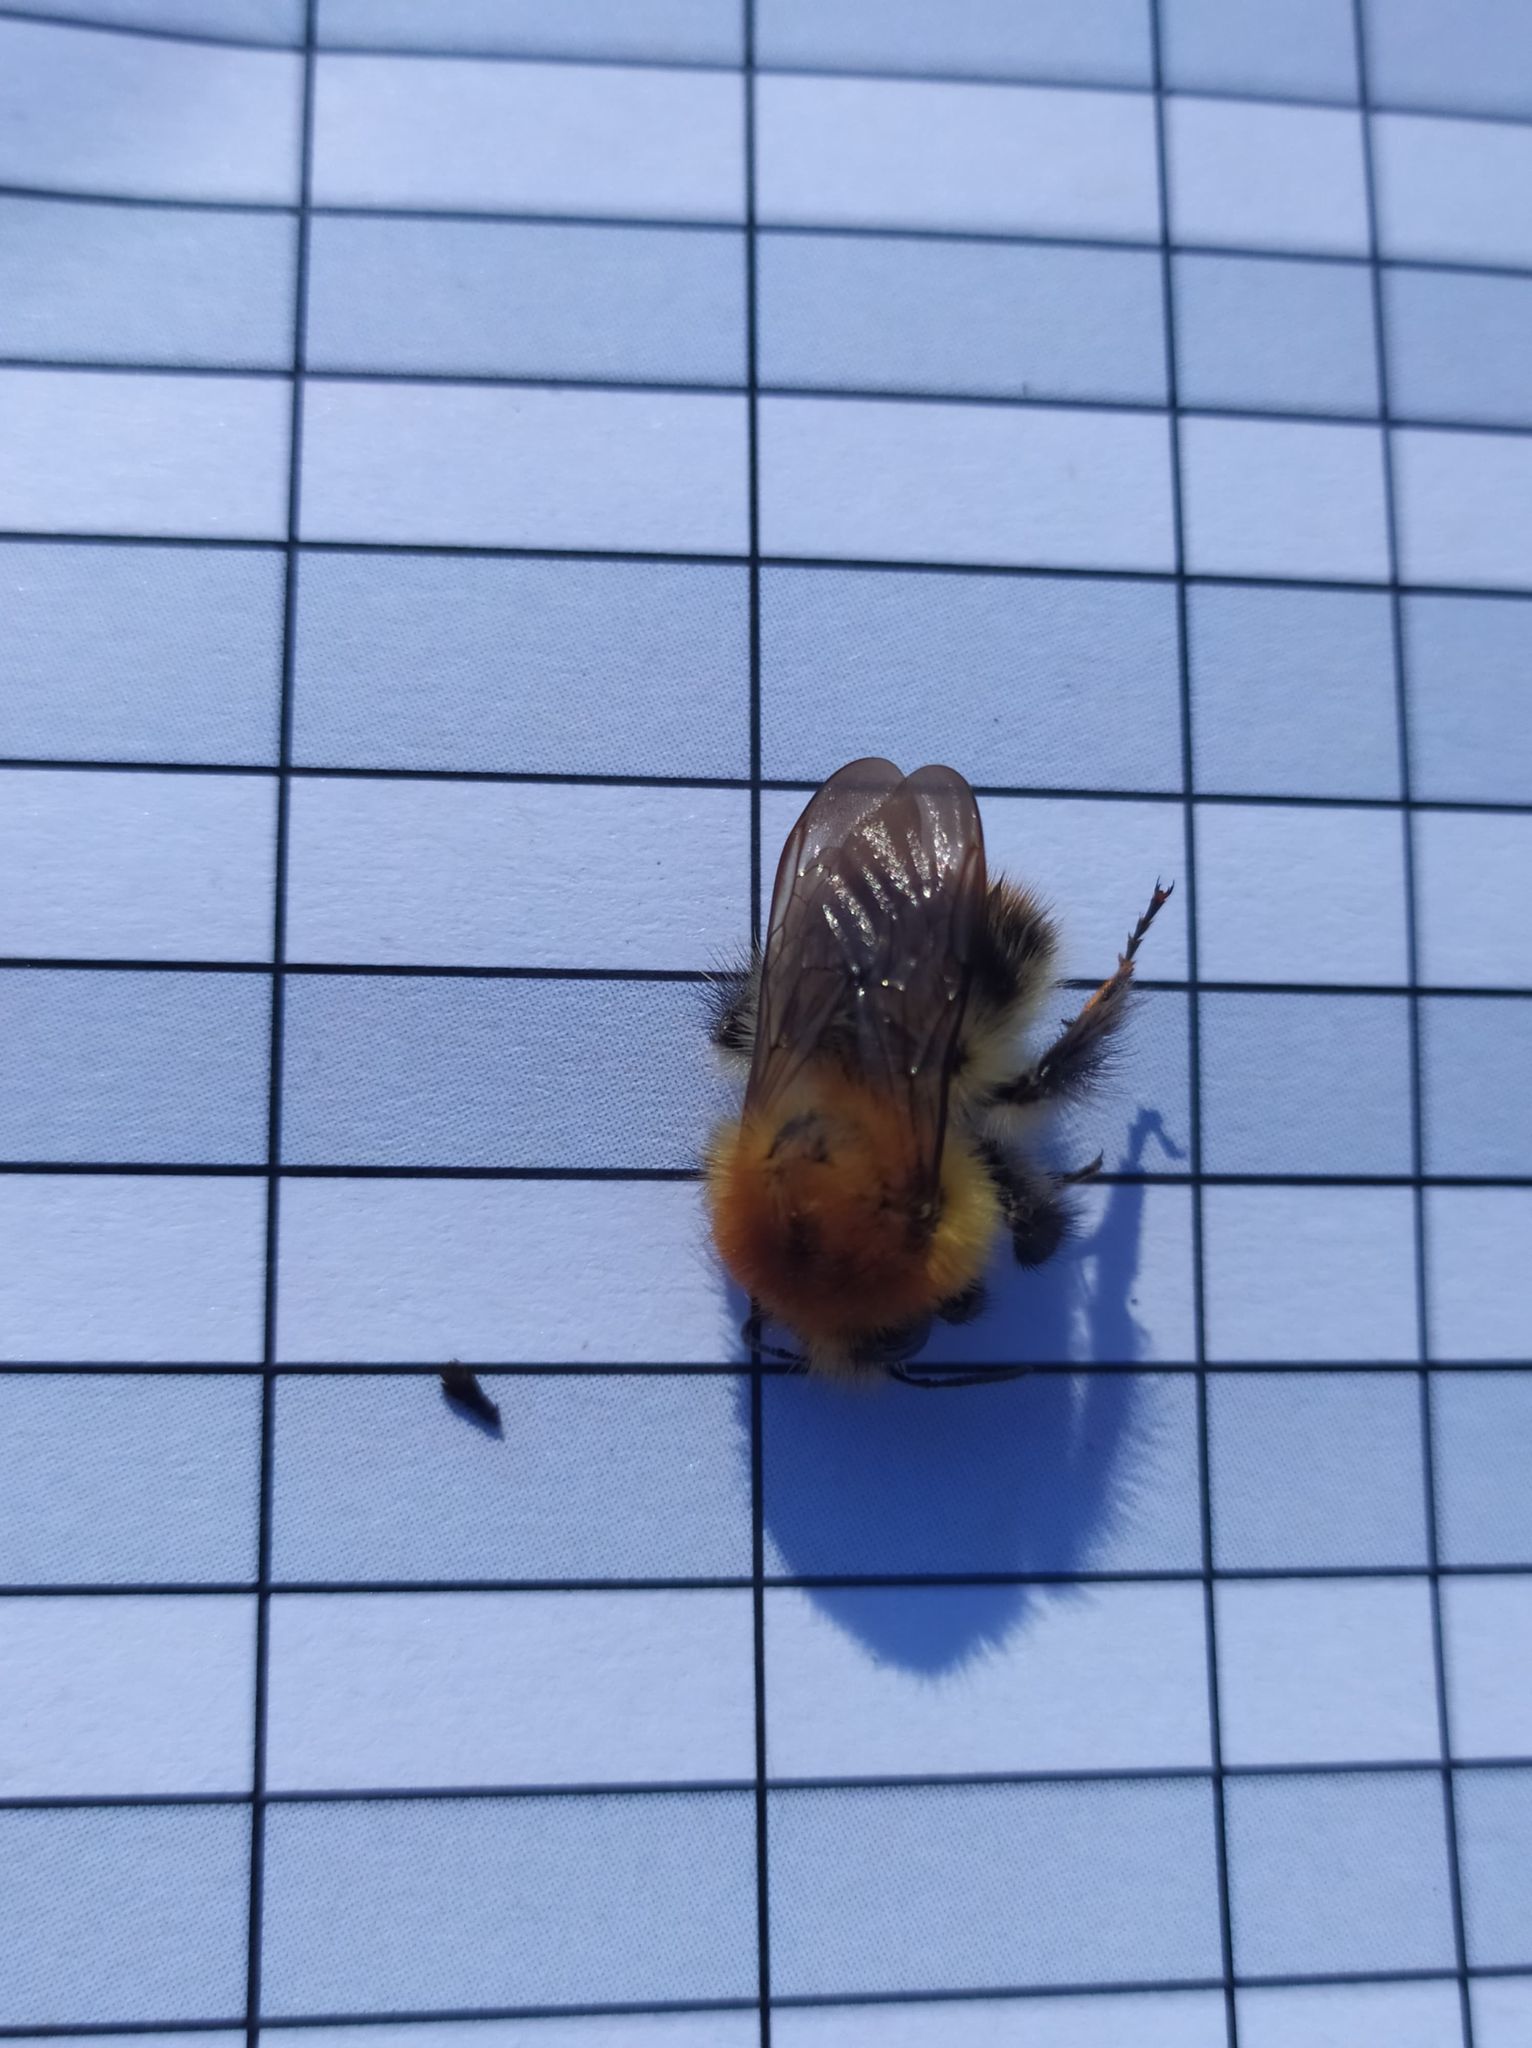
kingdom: Animalia
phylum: Arthropoda
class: Insecta
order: Hymenoptera
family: Apidae
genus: Bombus
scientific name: Bombus pascuorum
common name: Common carder bee
